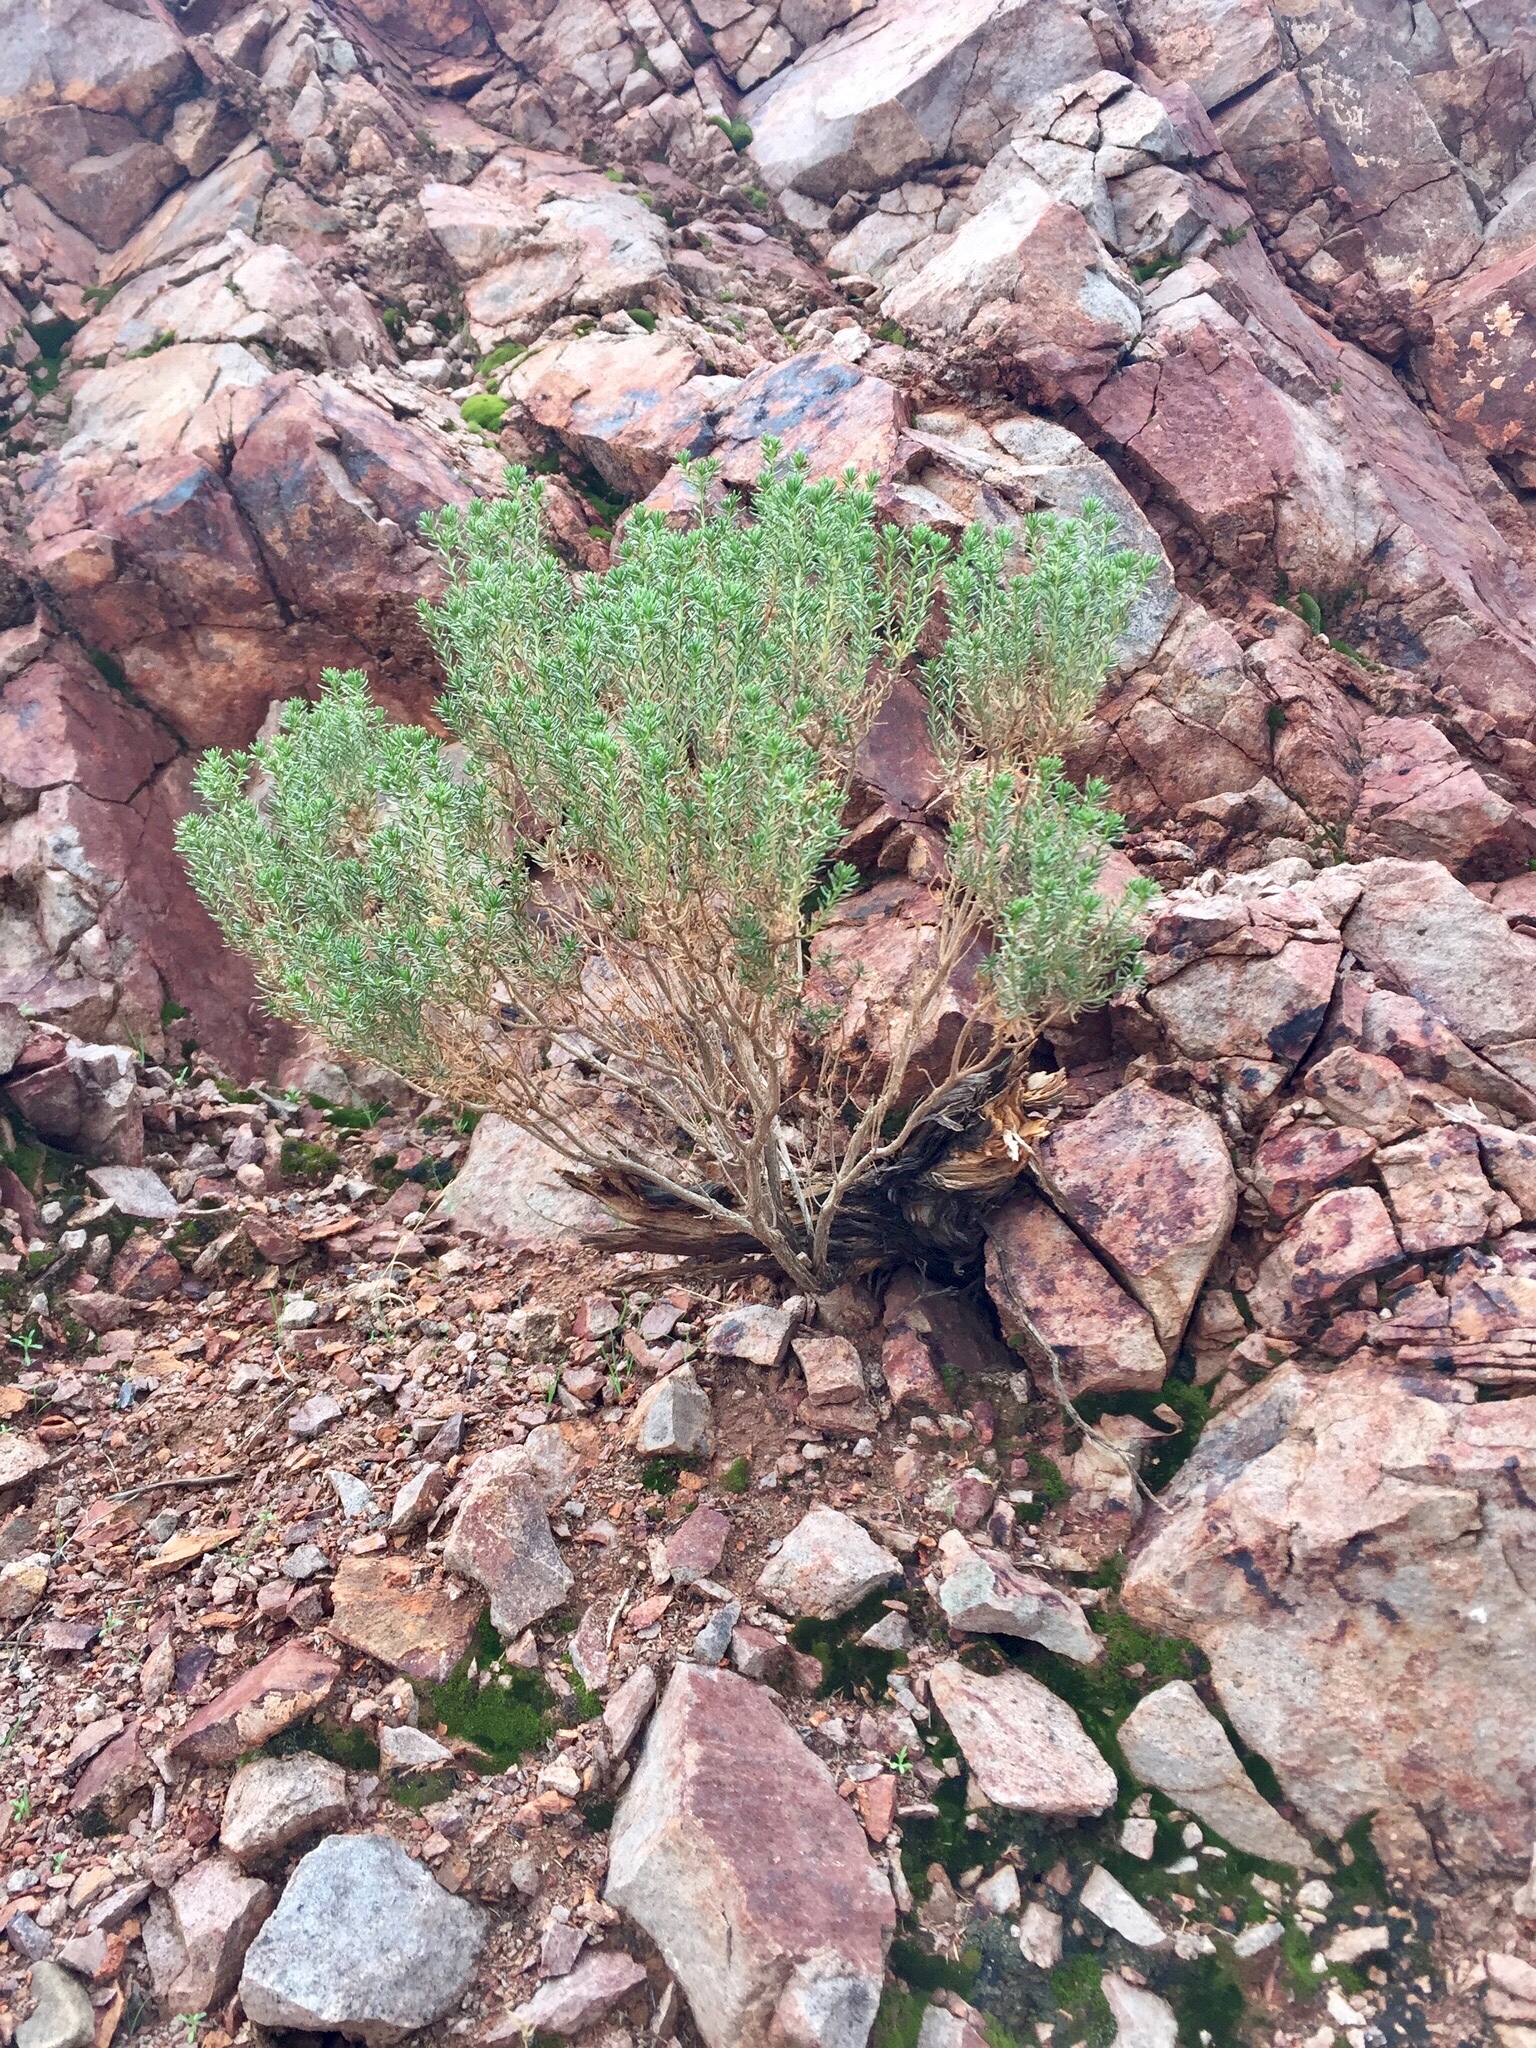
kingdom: Plantae
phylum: Tracheophyta
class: Magnoliopsida
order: Asterales
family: Asteraceae
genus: Peucephyllum
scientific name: Peucephyllum schottii
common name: Pygmy-cedar
